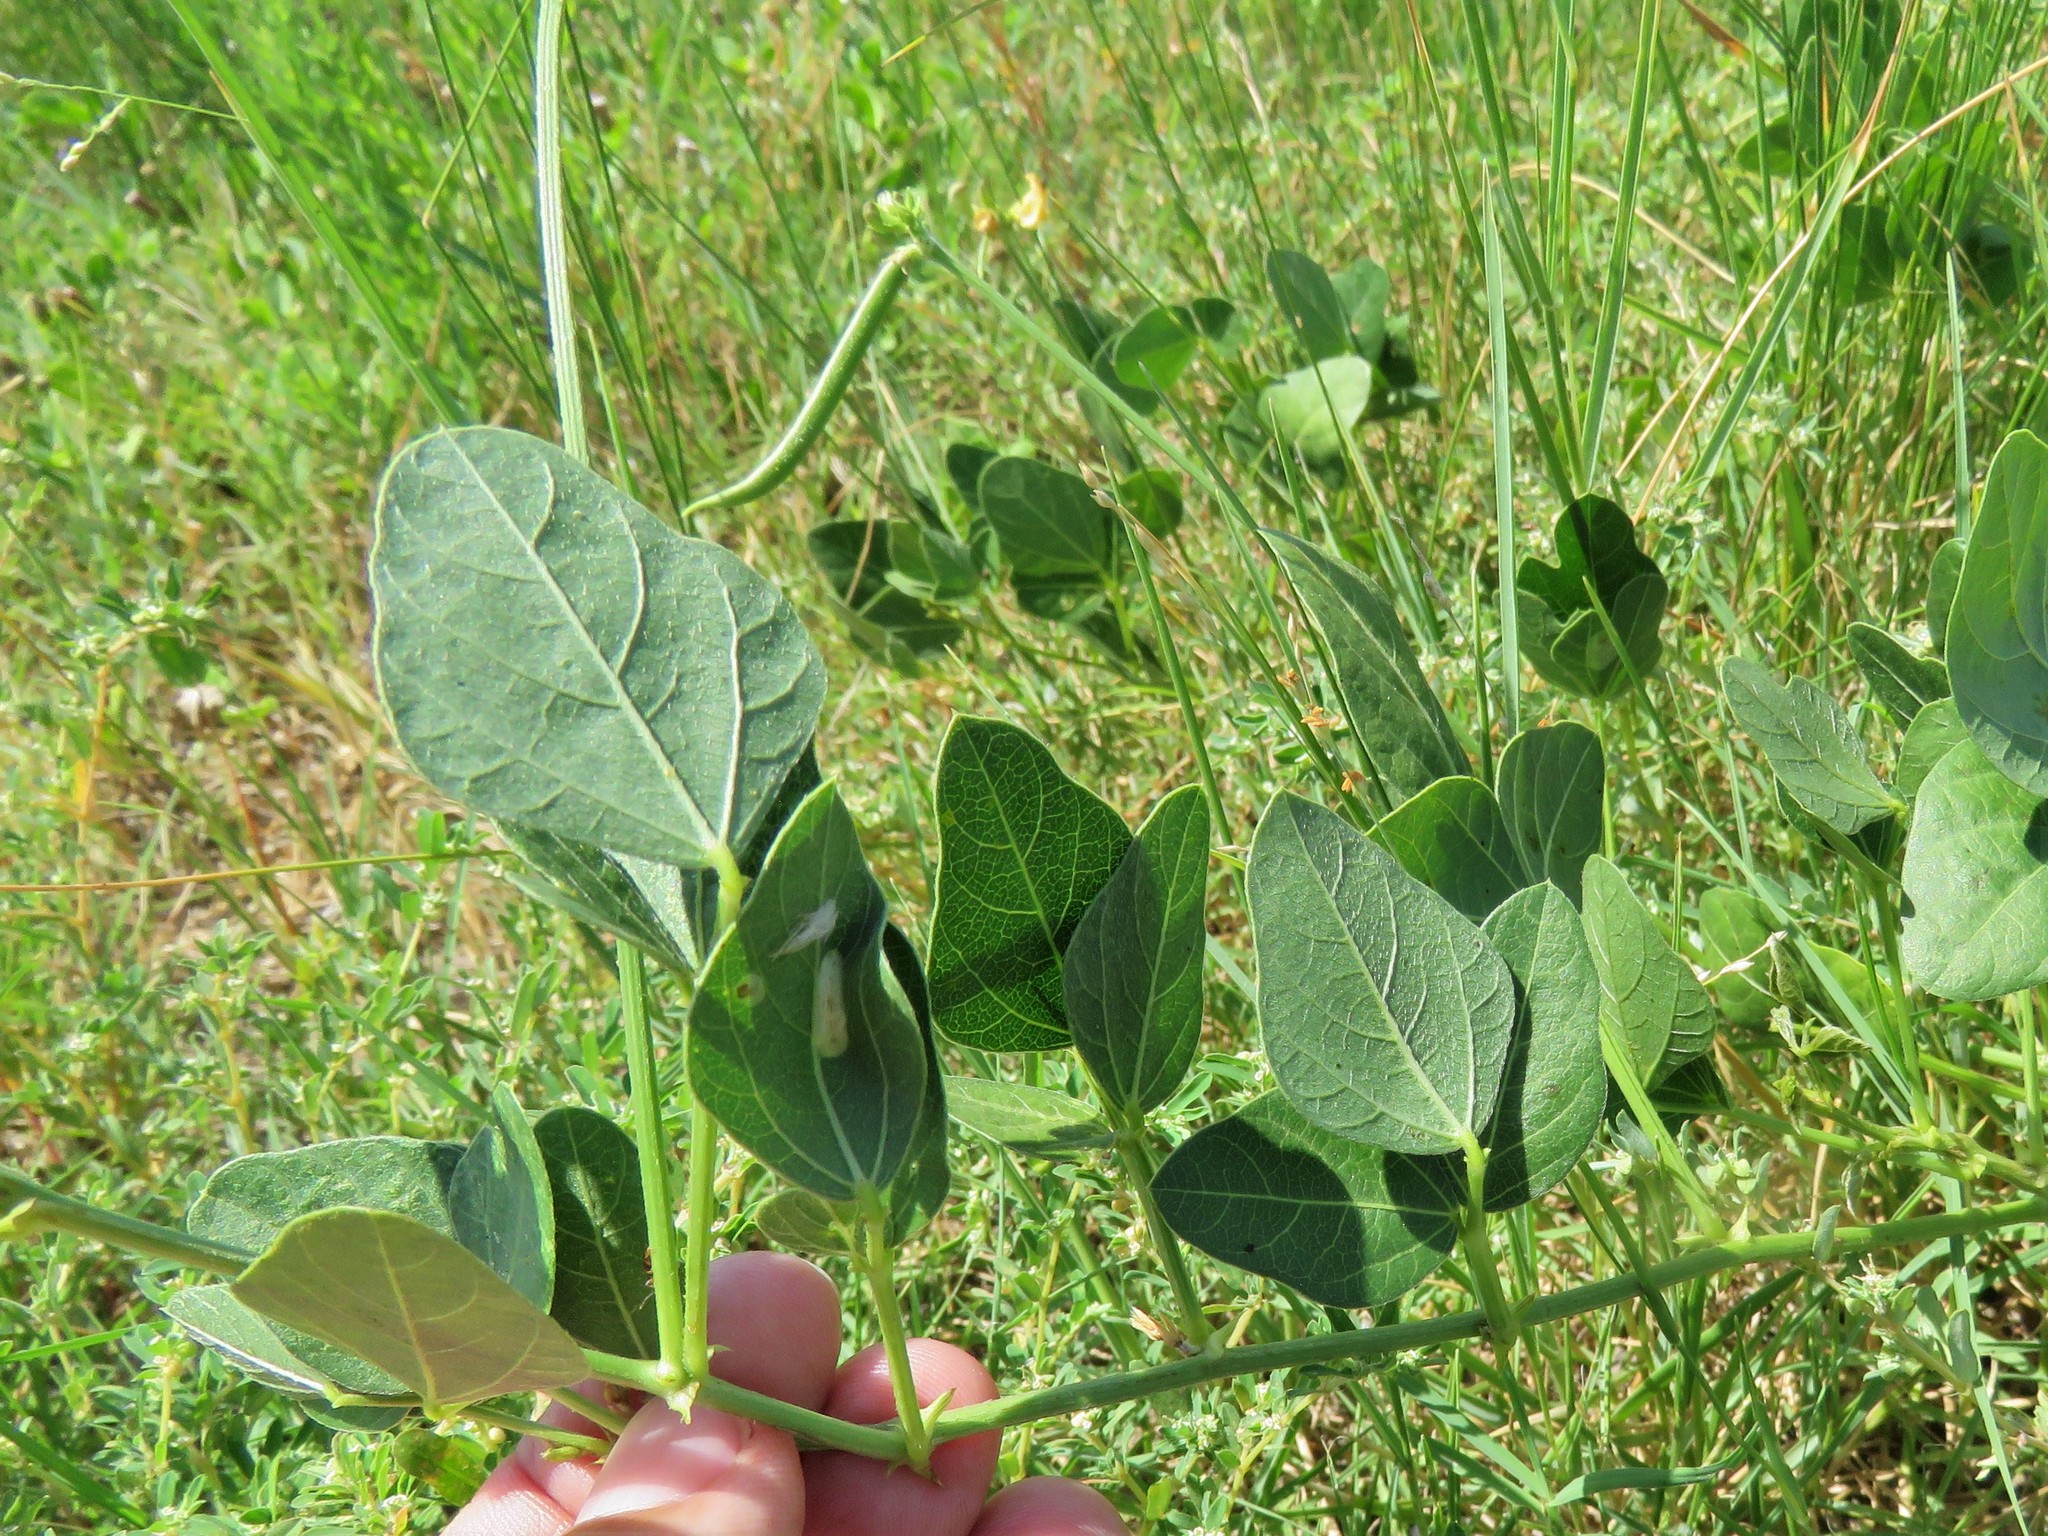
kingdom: Plantae
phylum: Tracheophyta
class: Magnoliopsida
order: Fabales
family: Fabaceae
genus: Strophostyles
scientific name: Strophostyles helvola
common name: Trailing wild bean
